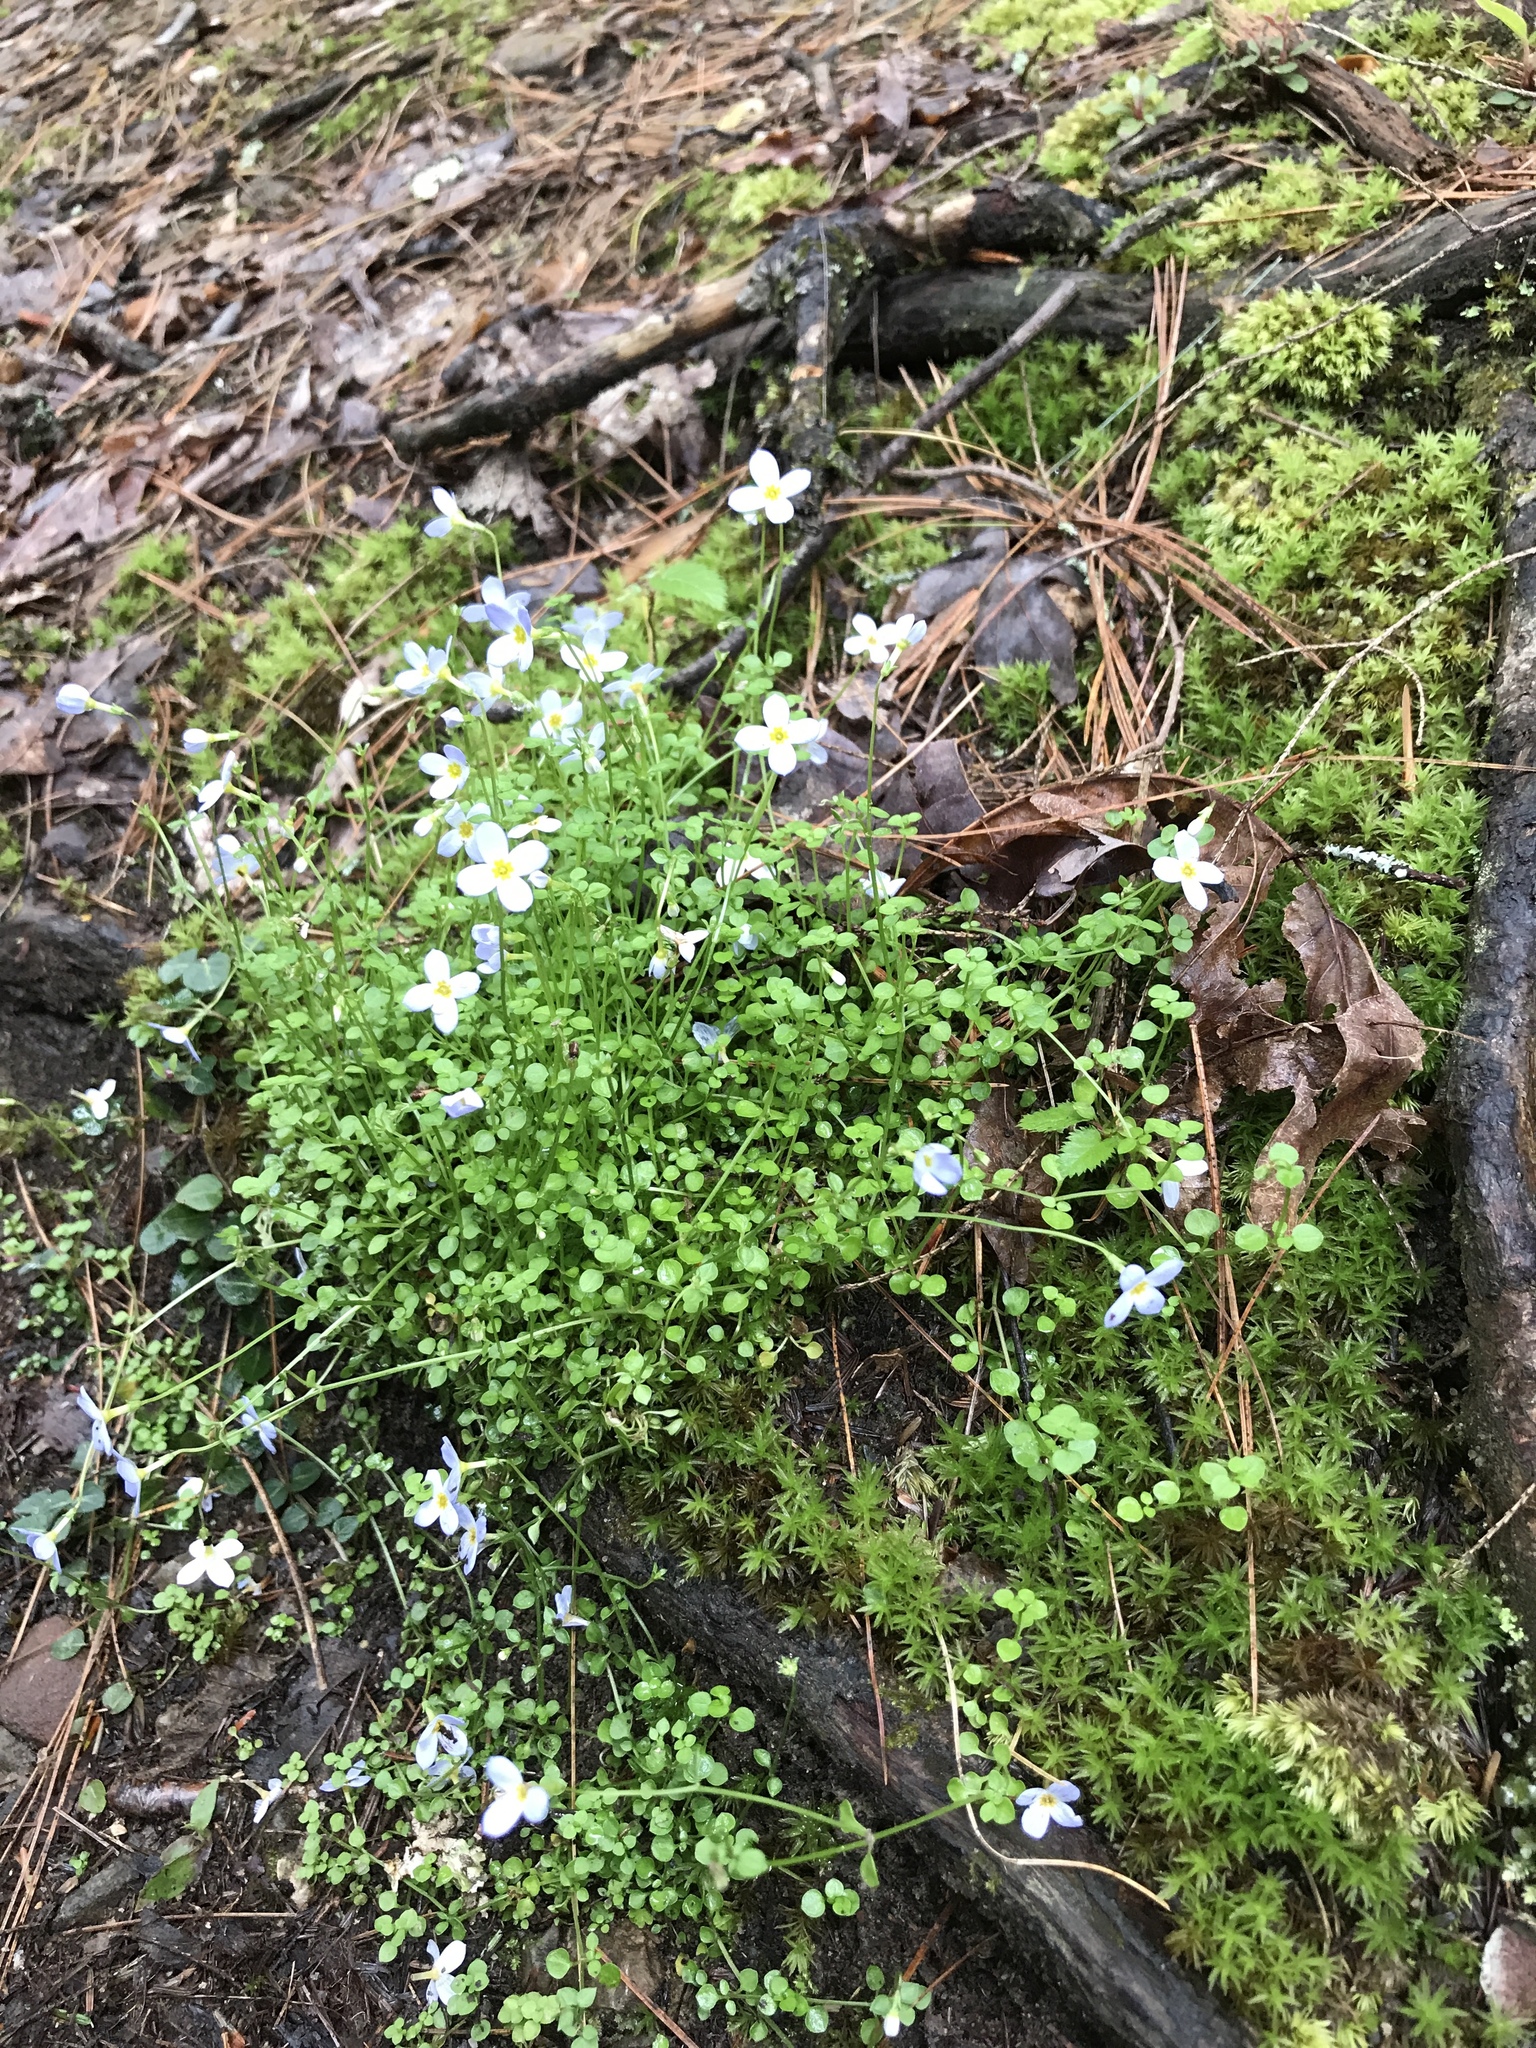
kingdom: Plantae
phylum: Tracheophyta
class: Magnoliopsida
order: Gentianales
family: Rubiaceae
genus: Houstonia
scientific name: Houstonia serpyllifolia
